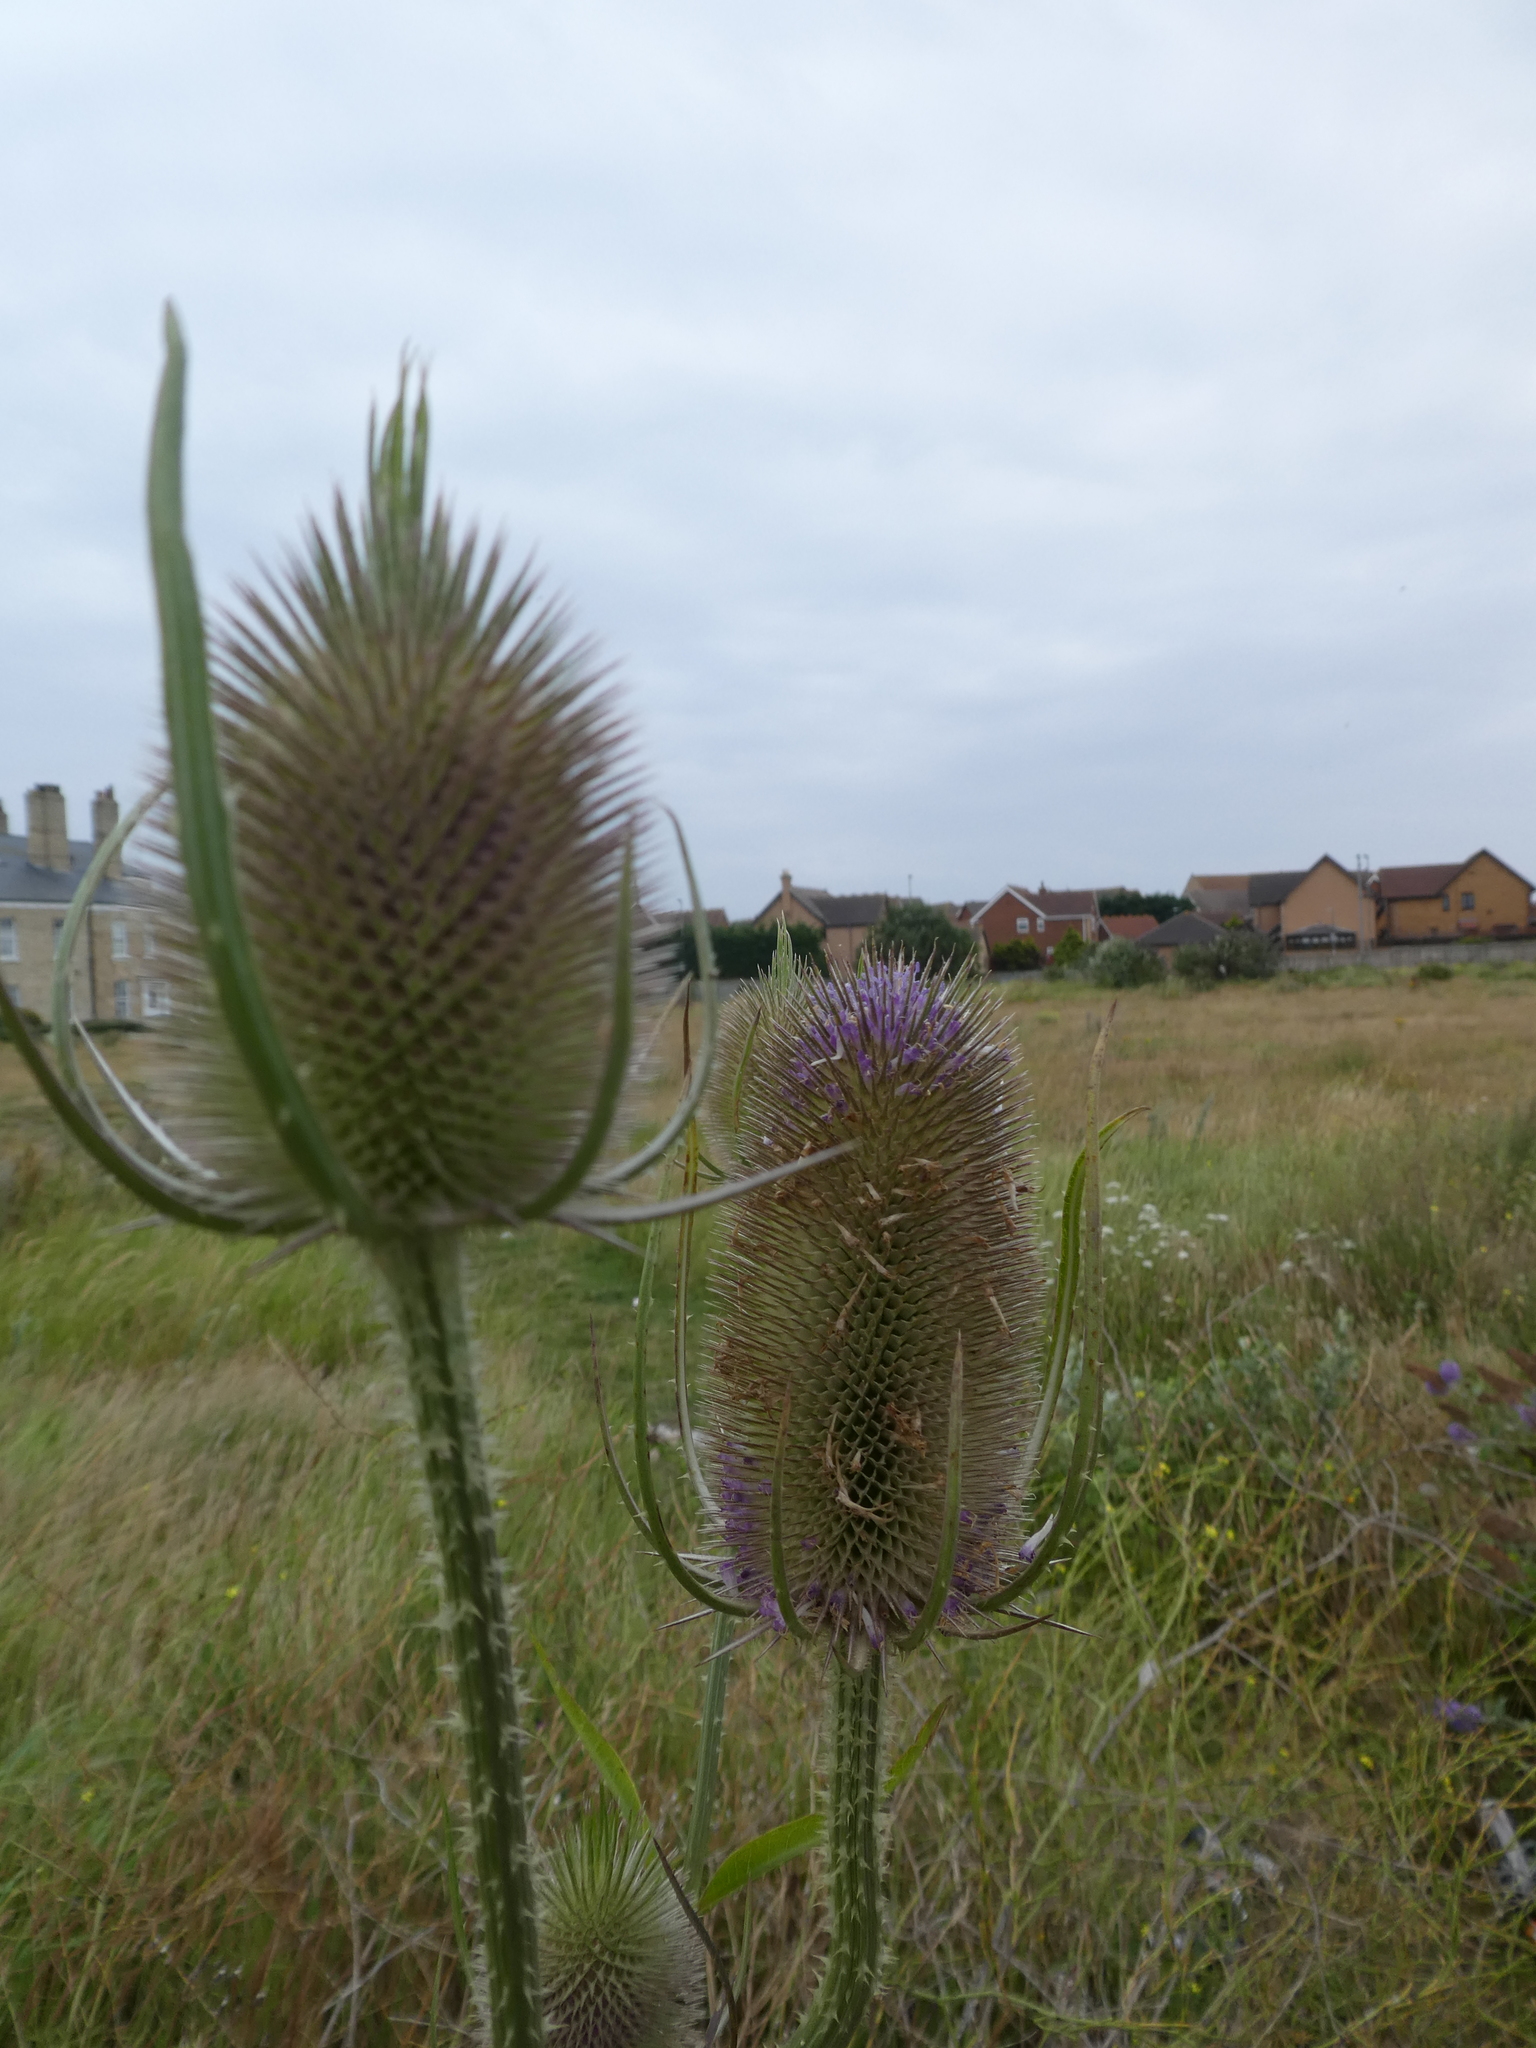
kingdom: Plantae
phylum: Tracheophyta
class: Magnoliopsida
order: Dipsacales
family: Caprifoliaceae
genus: Dipsacus
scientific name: Dipsacus fullonum
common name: Teasel
